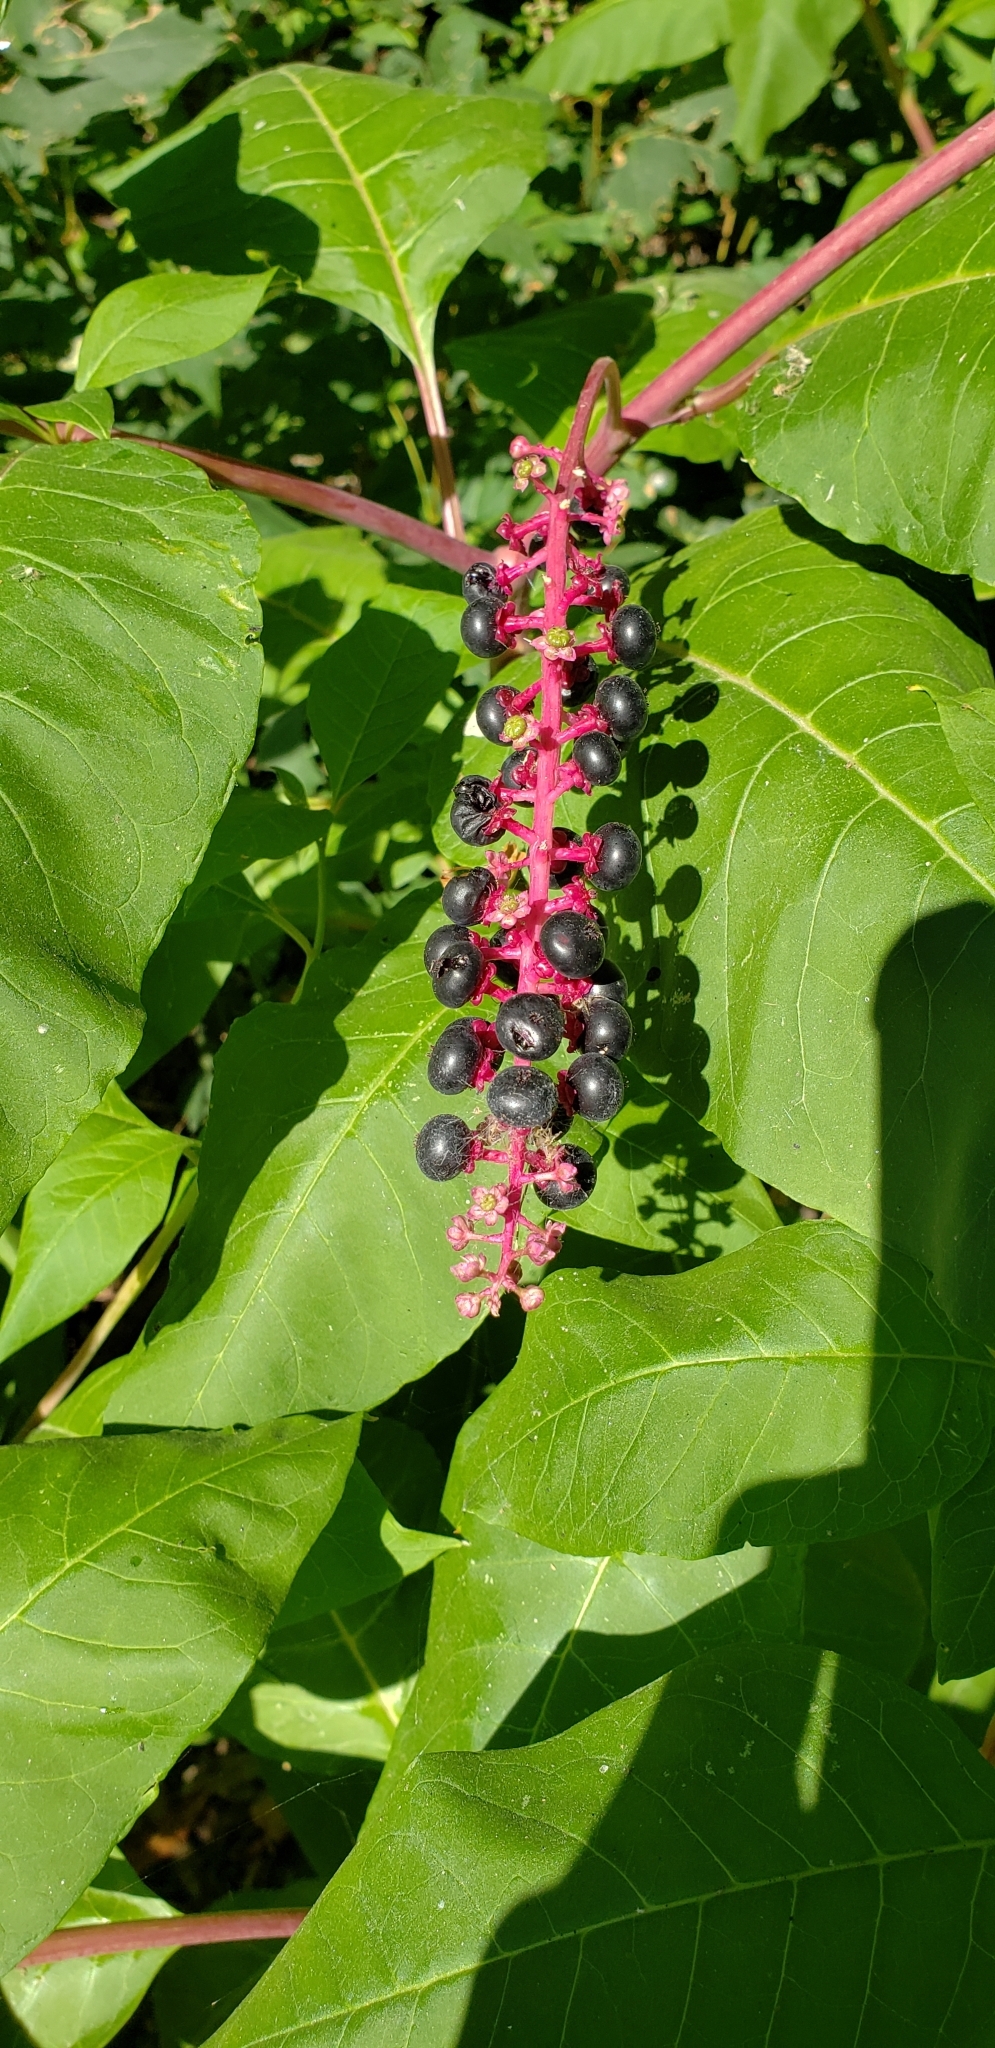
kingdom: Plantae
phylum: Tracheophyta
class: Magnoliopsida
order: Caryophyllales
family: Phytolaccaceae
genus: Phytolacca
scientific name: Phytolacca americana
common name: American pokeweed
